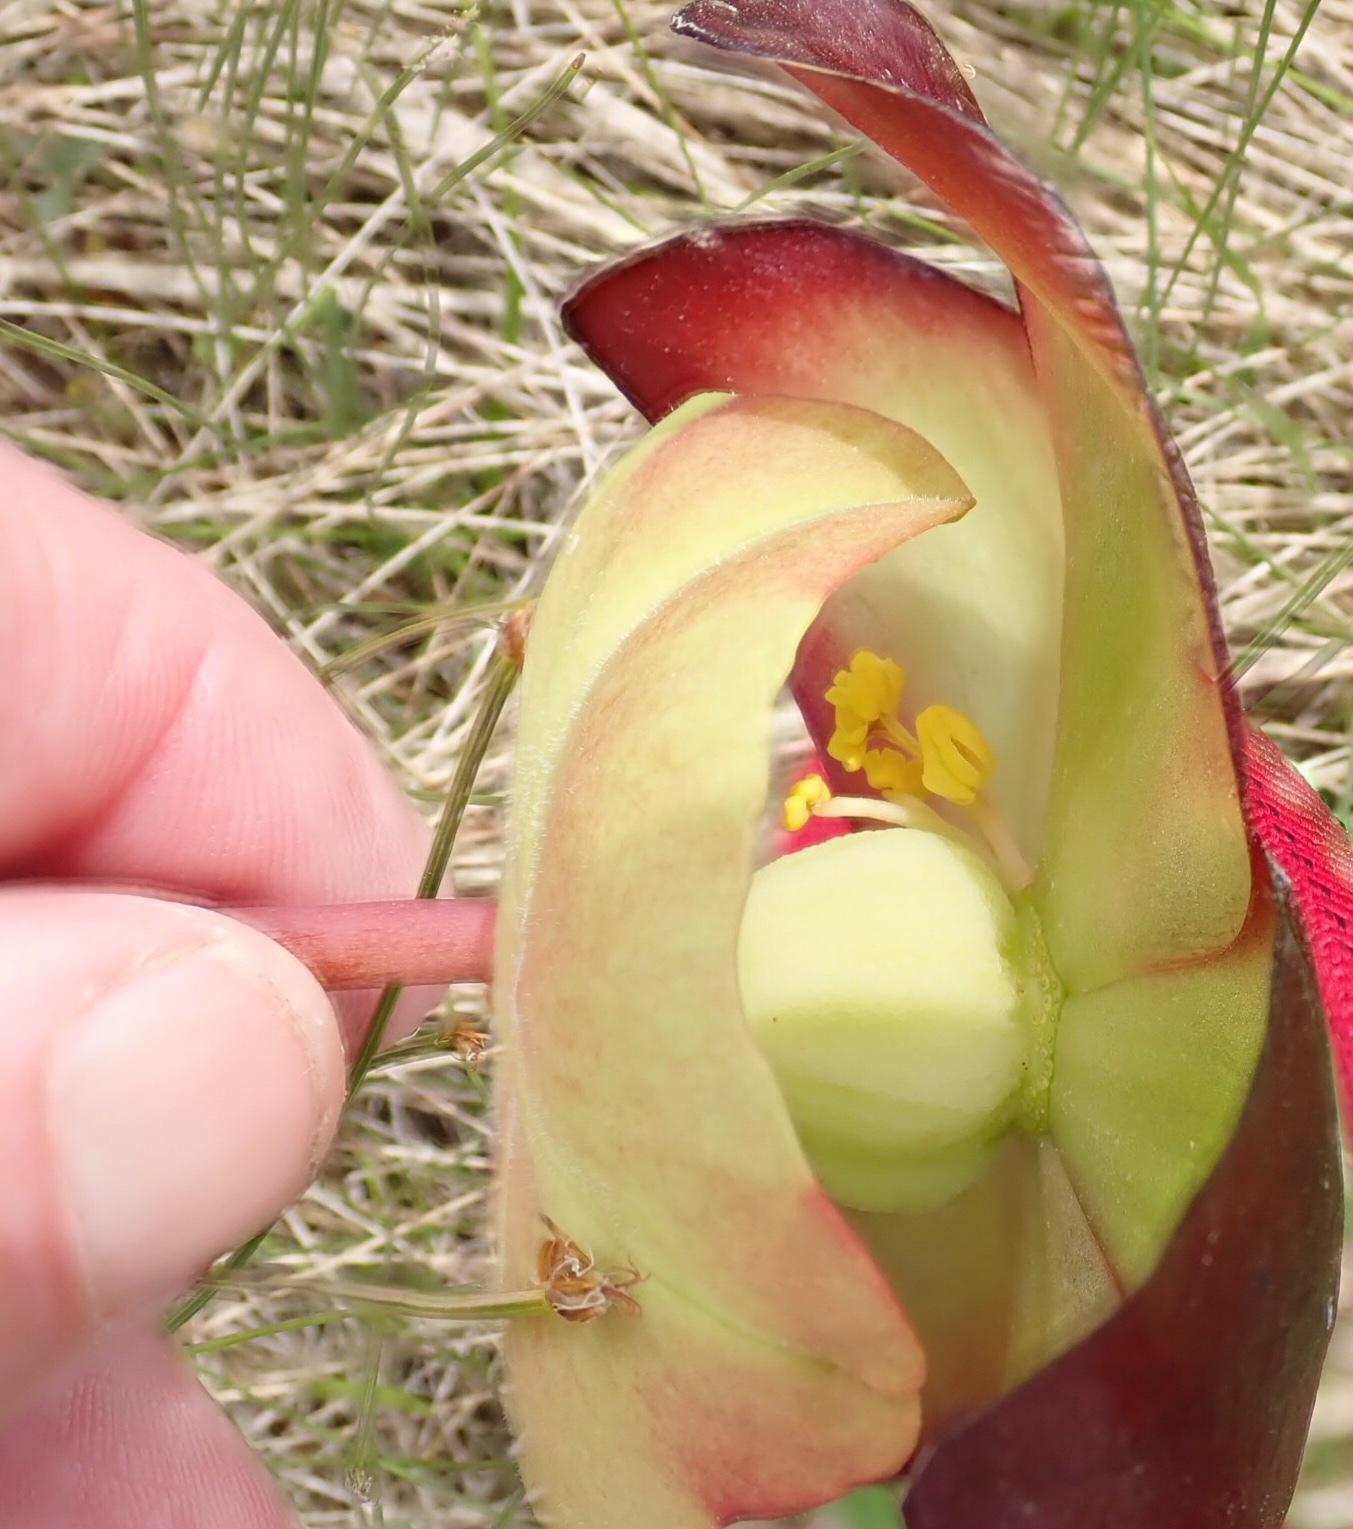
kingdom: Plantae
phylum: Tracheophyta
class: Magnoliopsida
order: Ericales
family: Sarraceniaceae
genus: Sarracenia
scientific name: Sarracenia purpurea
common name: Pitcherplant
